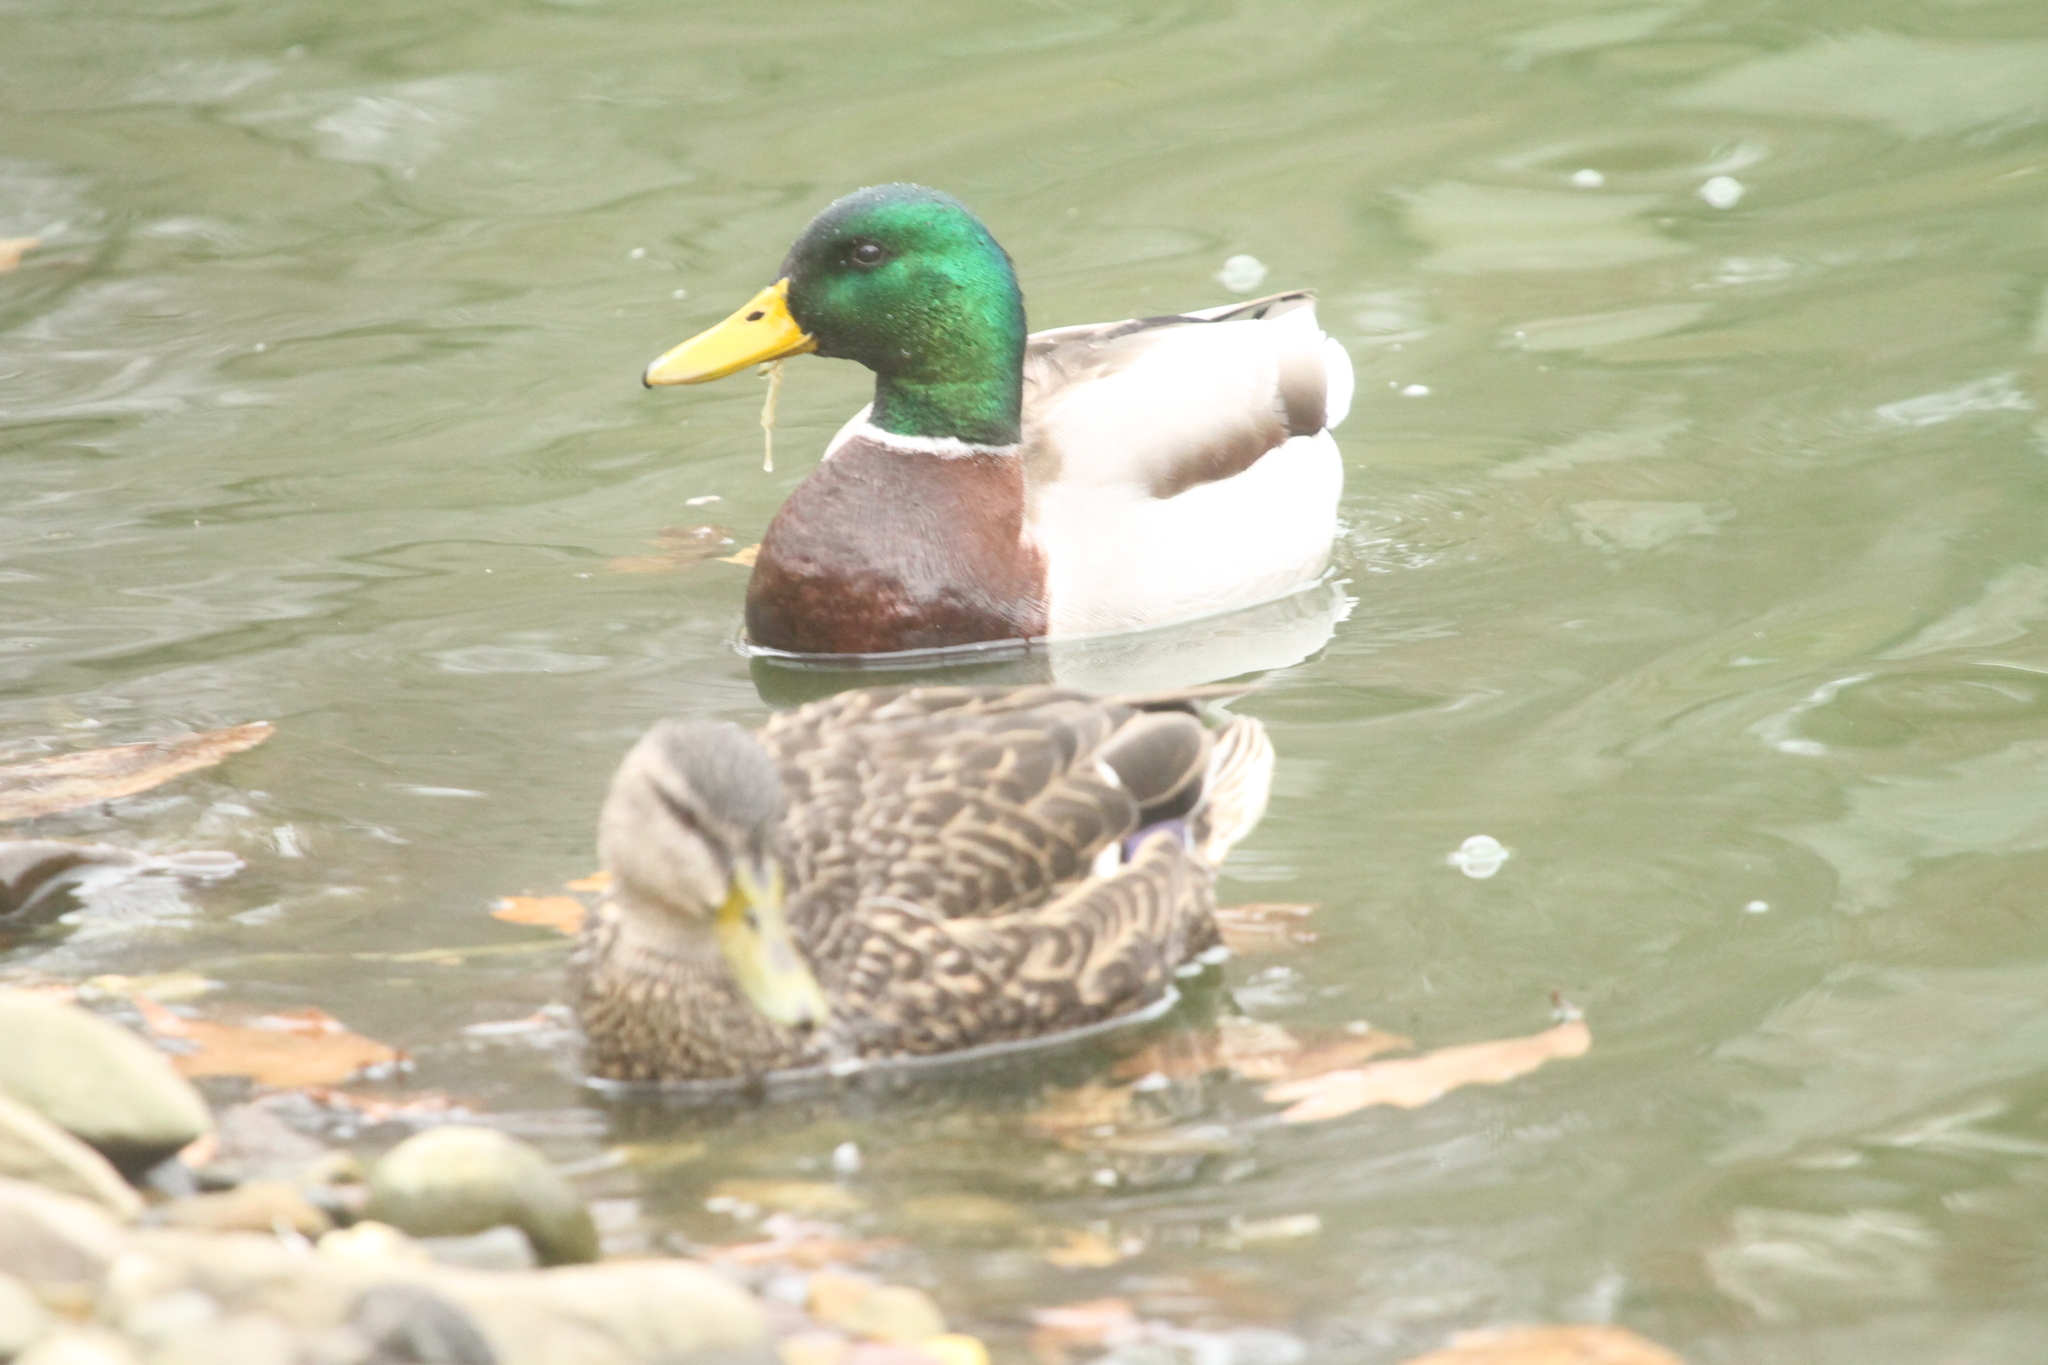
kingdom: Animalia
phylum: Chordata
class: Aves
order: Anseriformes
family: Anatidae
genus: Anas
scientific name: Anas platyrhynchos
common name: Mallard
